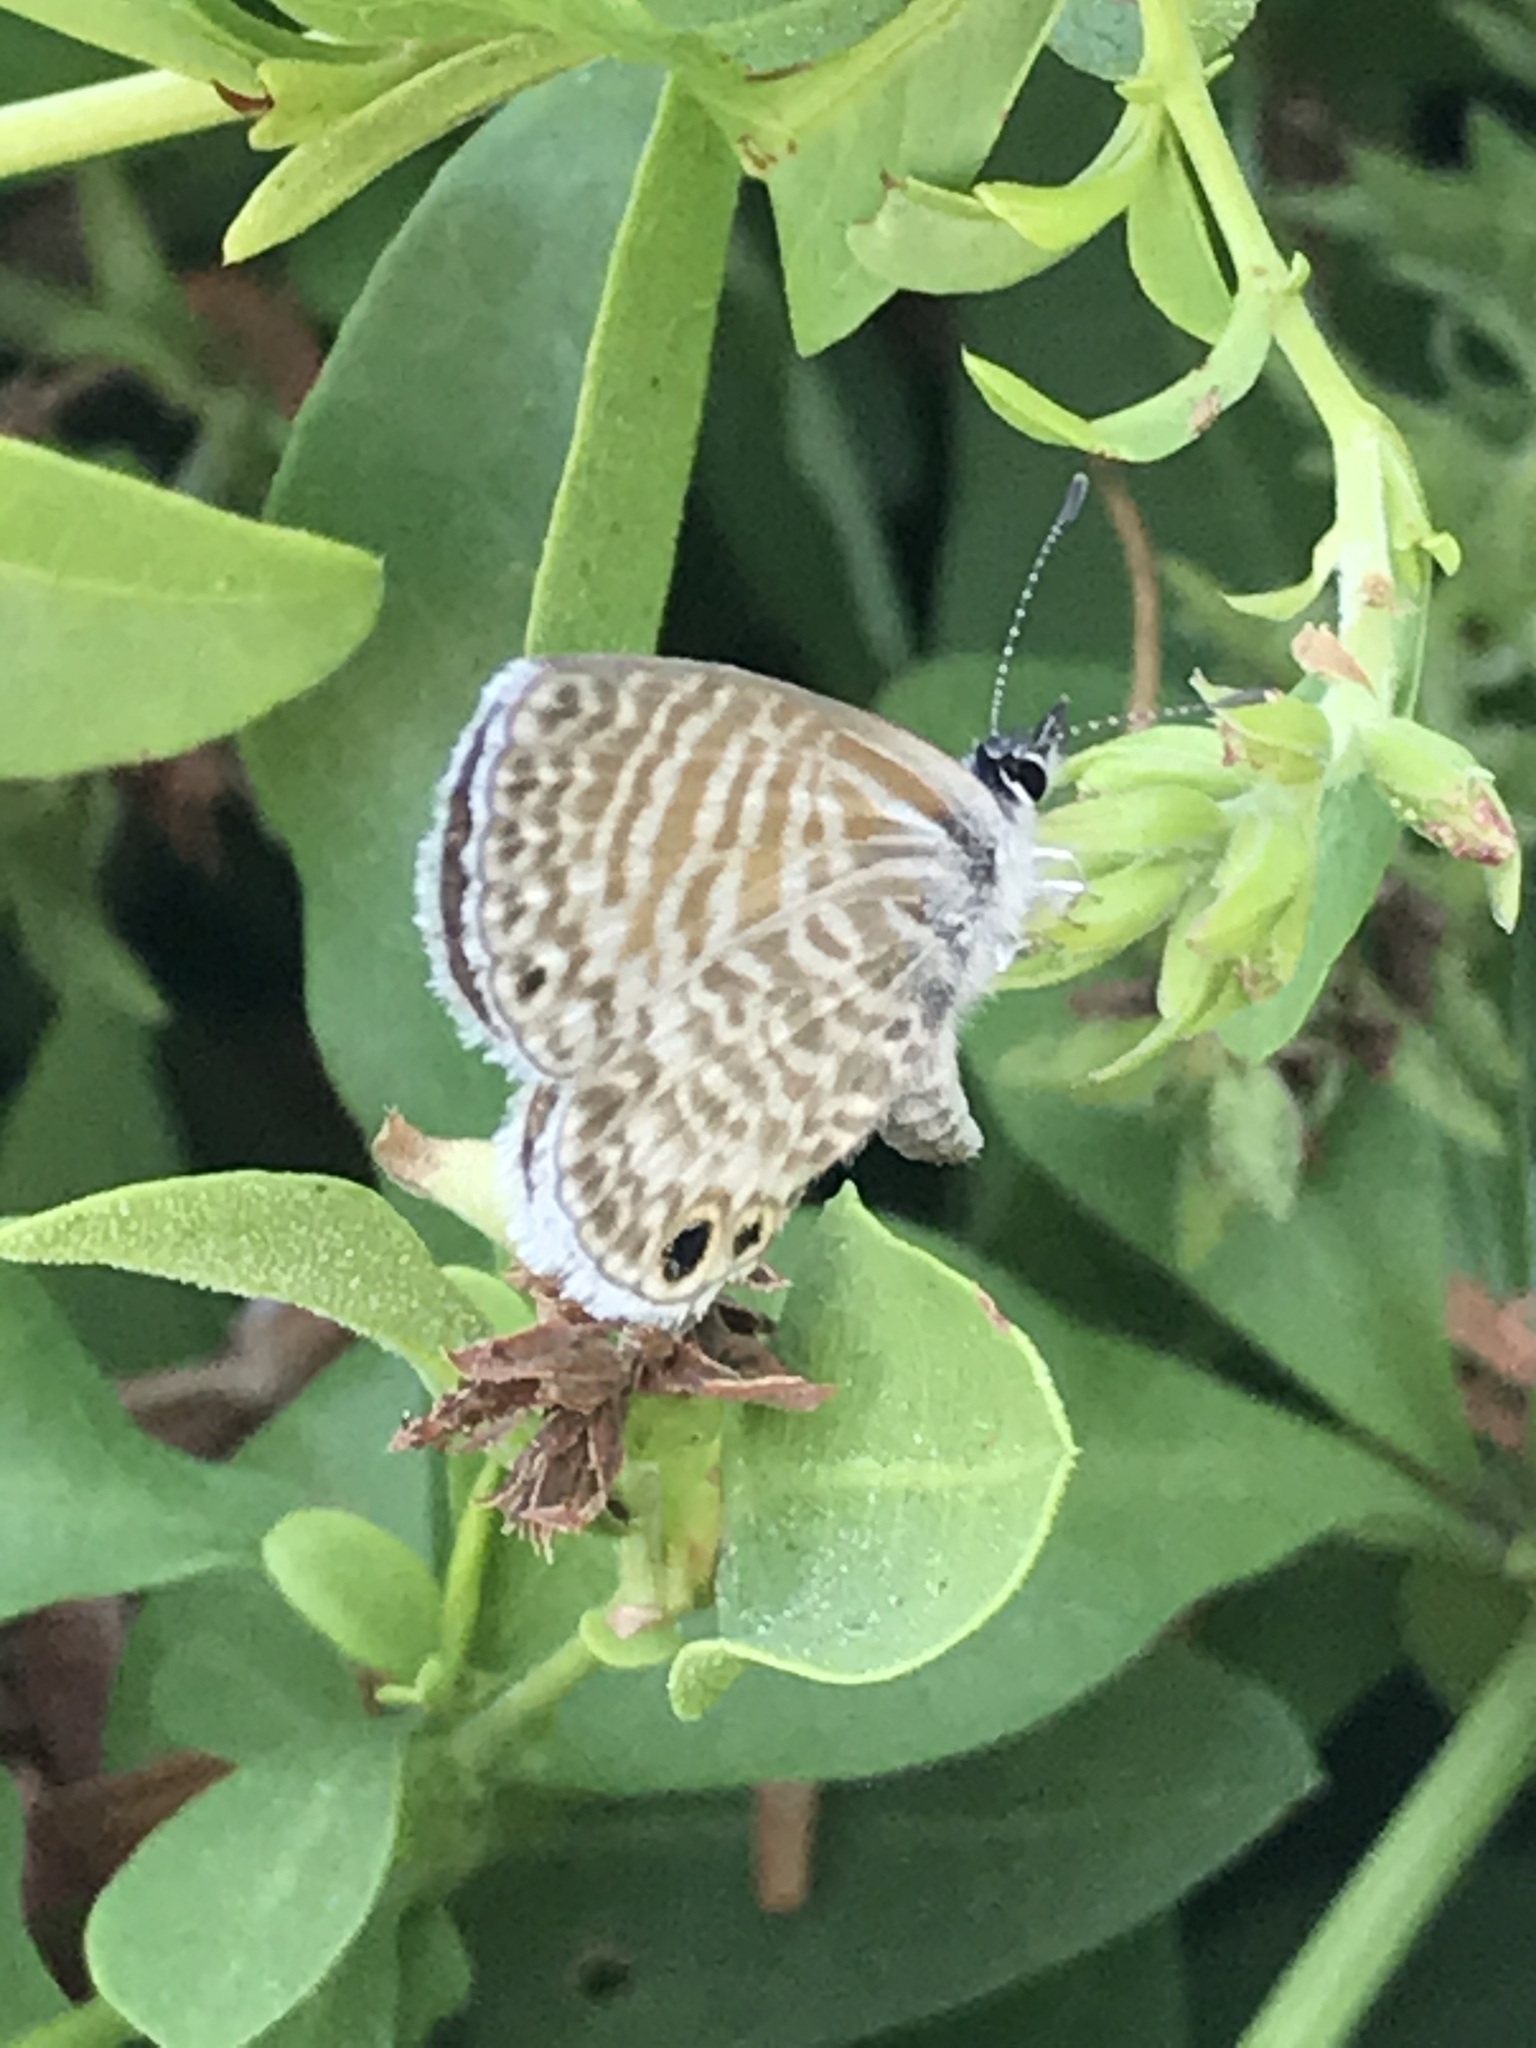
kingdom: Animalia
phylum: Arthropoda
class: Insecta
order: Lepidoptera
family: Lycaenidae
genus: Leptotes
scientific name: Leptotes marina
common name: Marine blue
